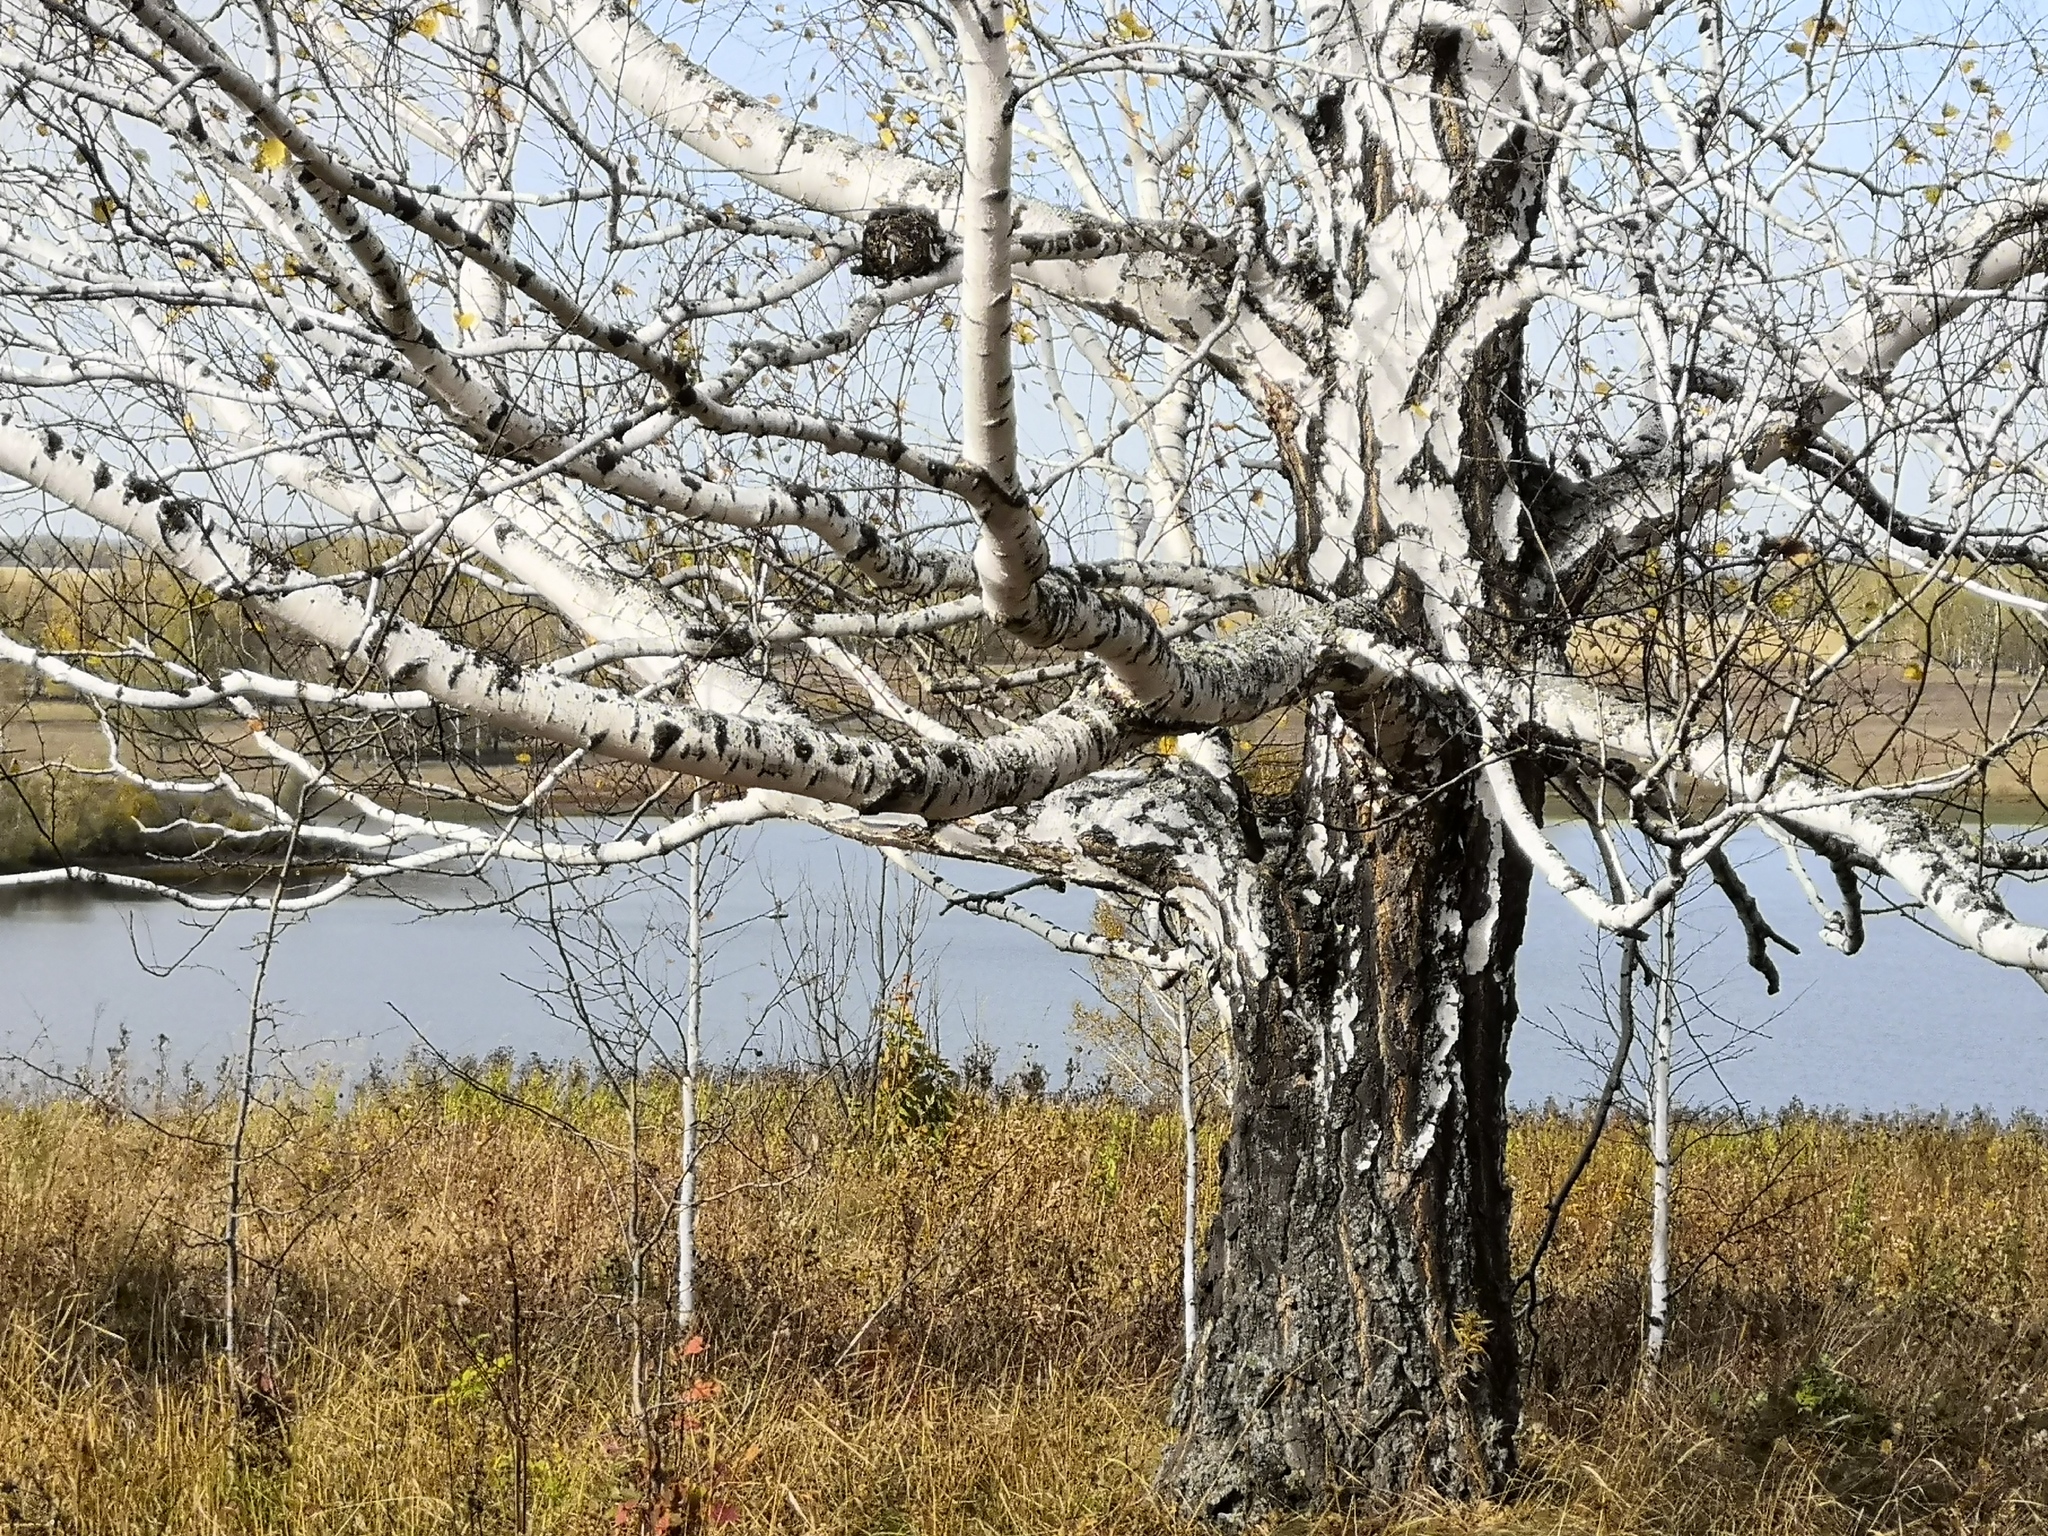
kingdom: Plantae
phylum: Tracheophyta
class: Magnoliopsida
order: Fagales
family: Betulaceae
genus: Betula
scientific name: Betula pendula
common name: Silver birch
